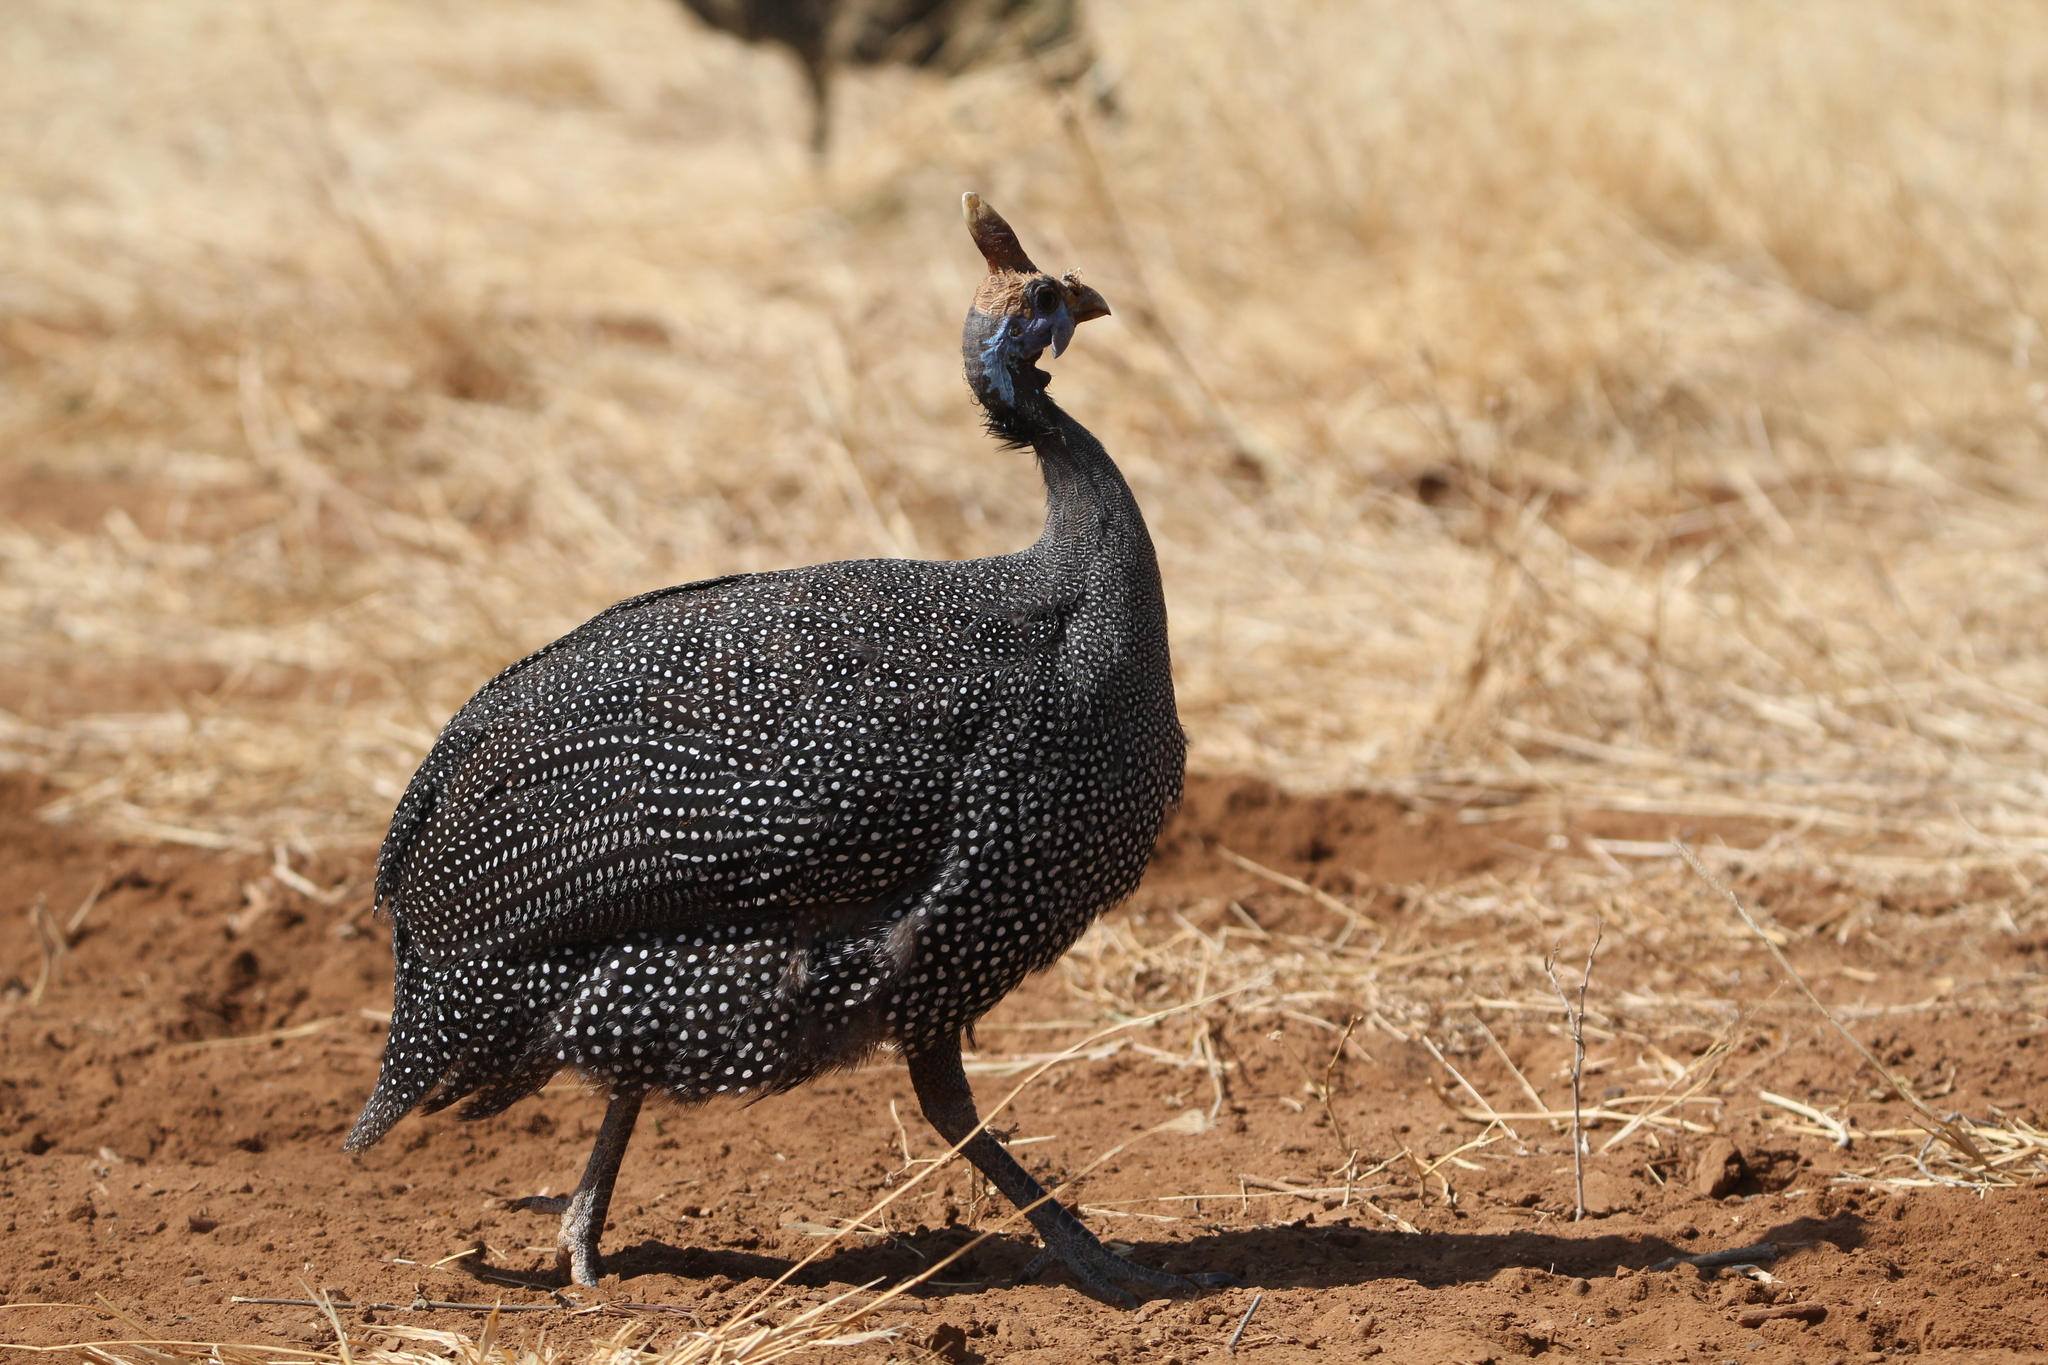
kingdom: Animalia
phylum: Chordata
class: Aves
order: Galliformes
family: Numididae
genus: Numida
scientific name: Numida meleagris
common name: Helmeted guineafowl
